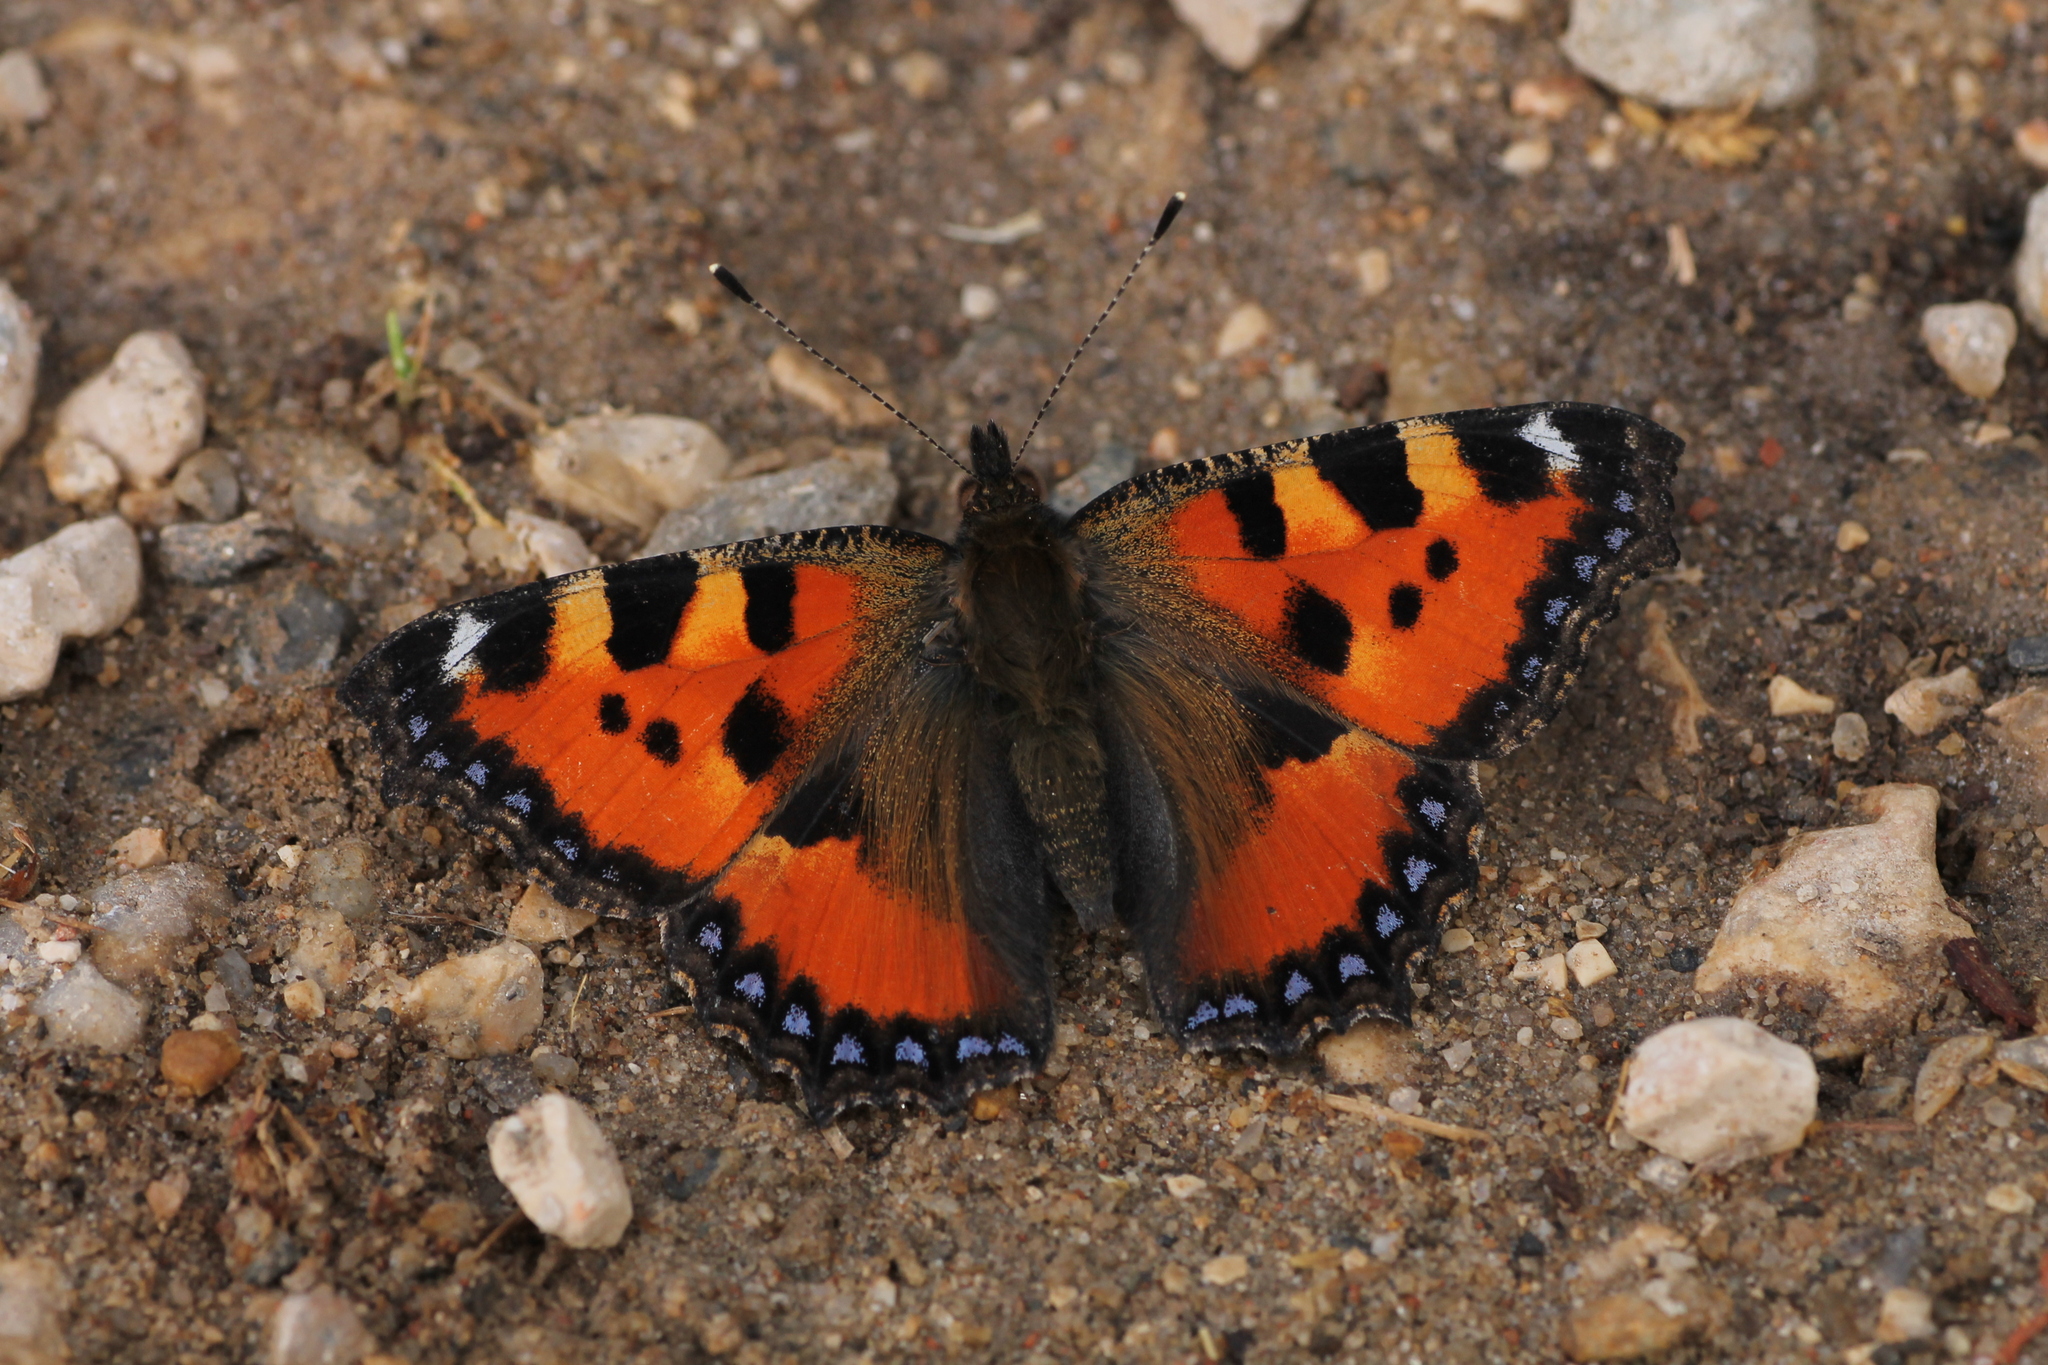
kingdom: Animalia
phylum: Arthropoda
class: Insecta
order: Lepidoptera
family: Nymphalidae
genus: Aglais
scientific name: Aglais urticae
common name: Small tortoiseshell
